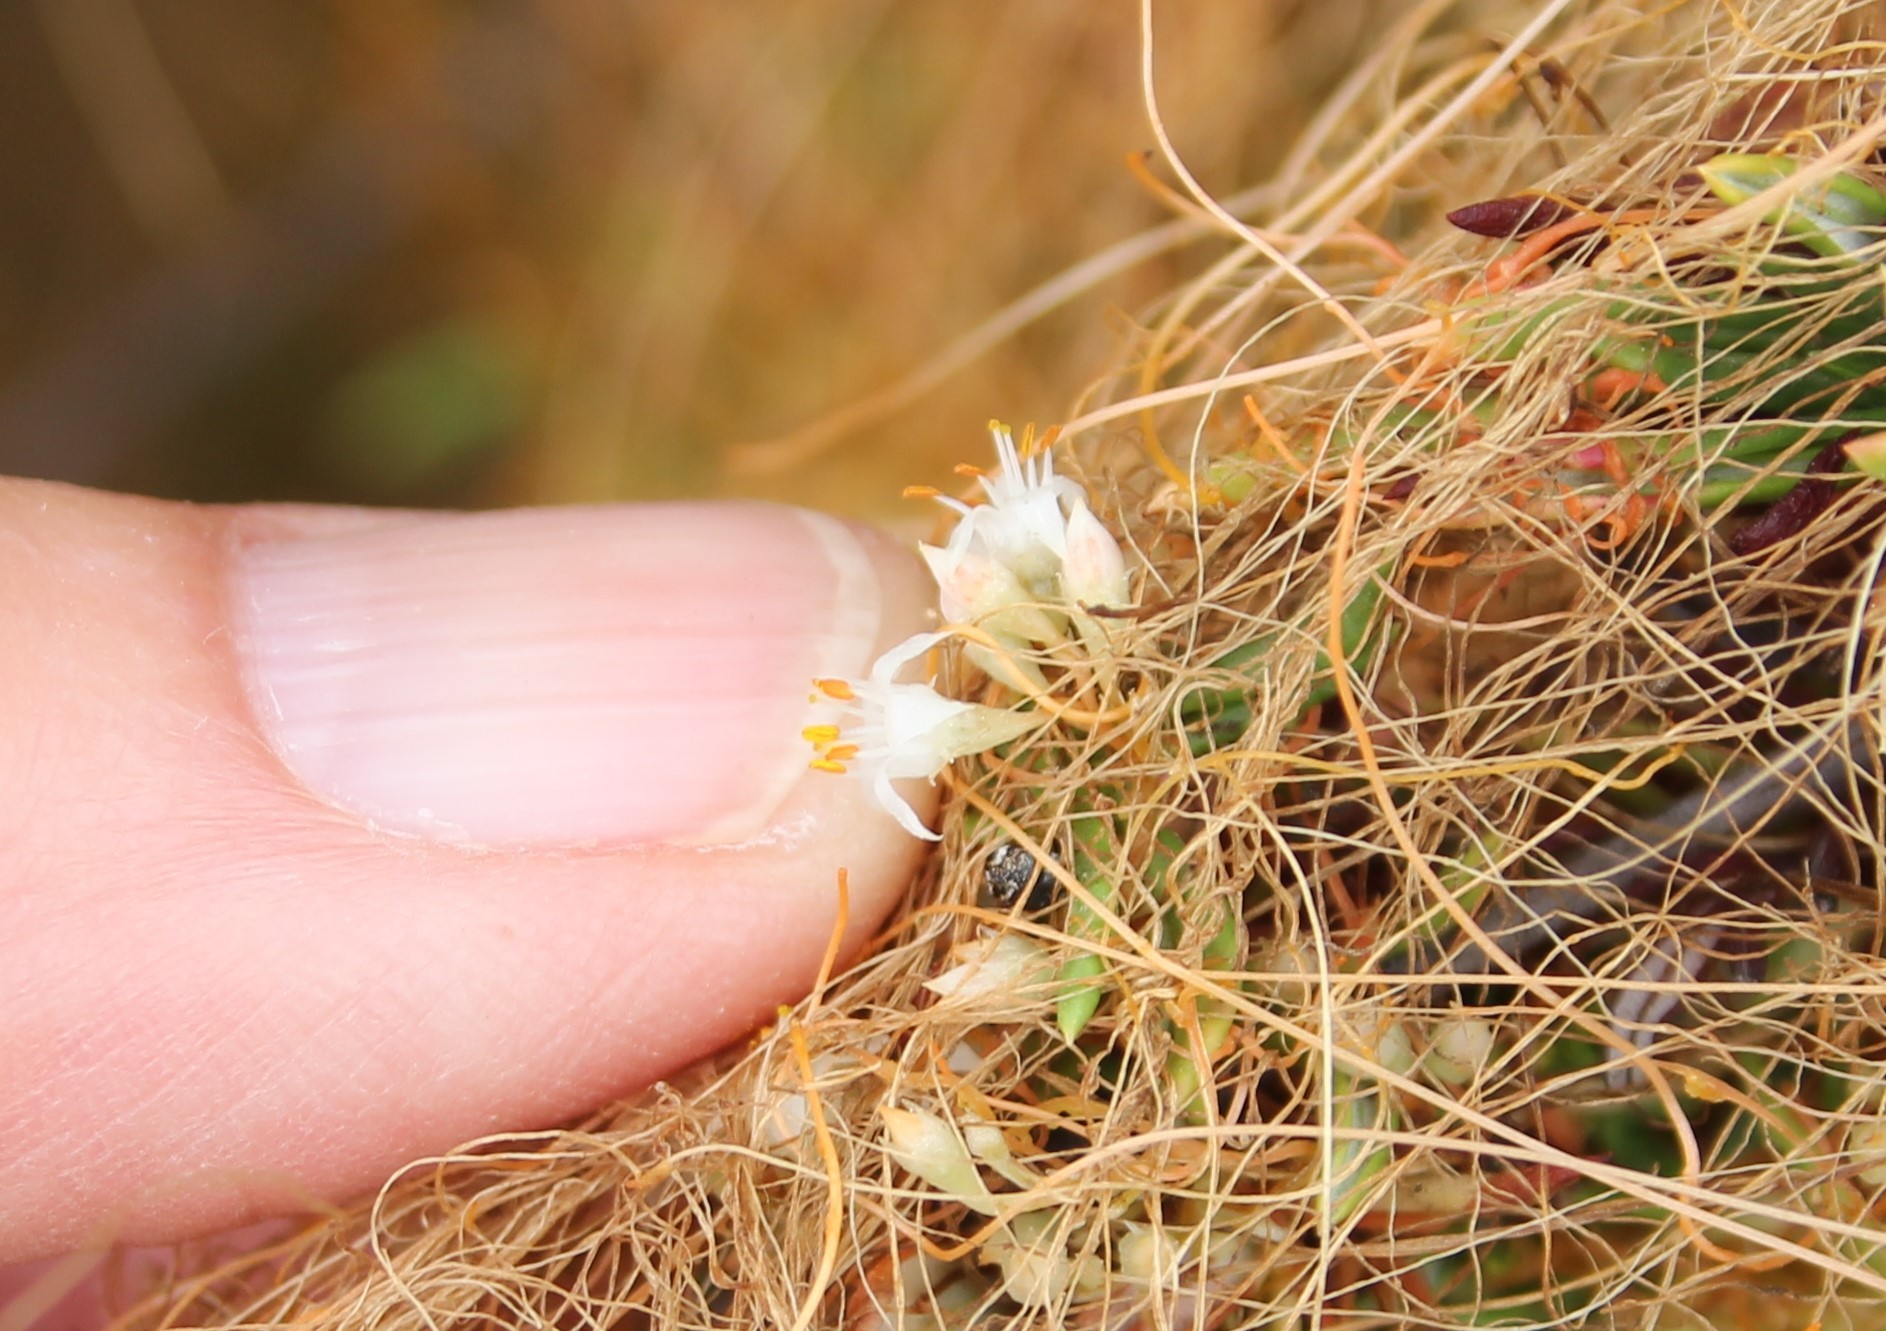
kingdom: Plantae
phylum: Tracheophyta
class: Magnoliopsida
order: Solanales
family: Convolvulaceae
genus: Cuscuta
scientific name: Cuscuta californica
